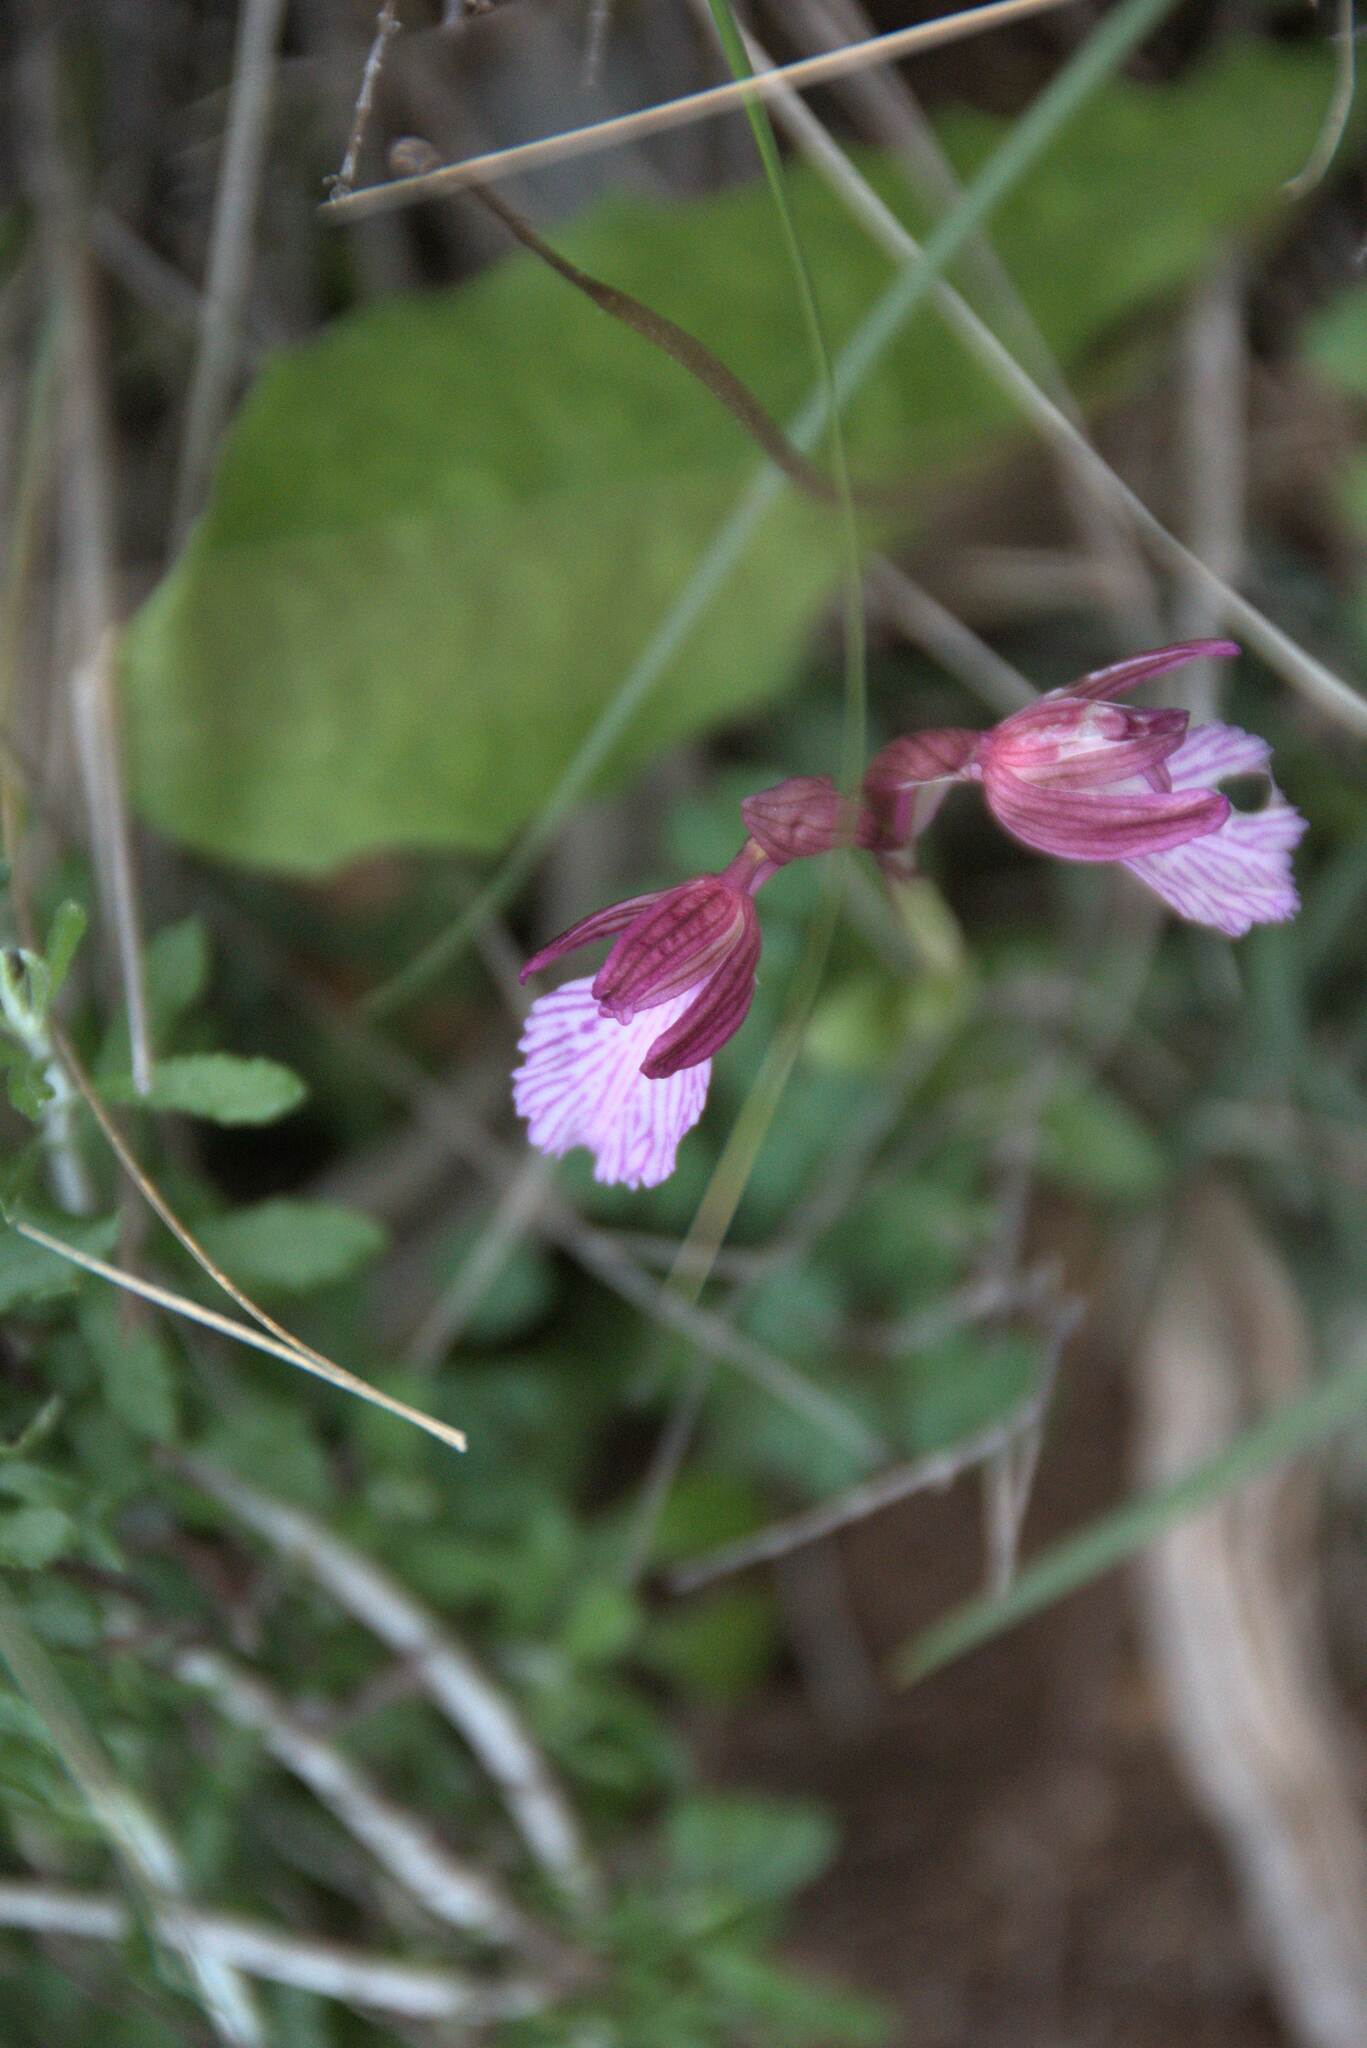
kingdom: Plantae
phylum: Tracheophyta
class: Liliopsida
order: Asparagales
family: Orchidaceae
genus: Anacamptis
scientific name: Anacamptis papilionacea
